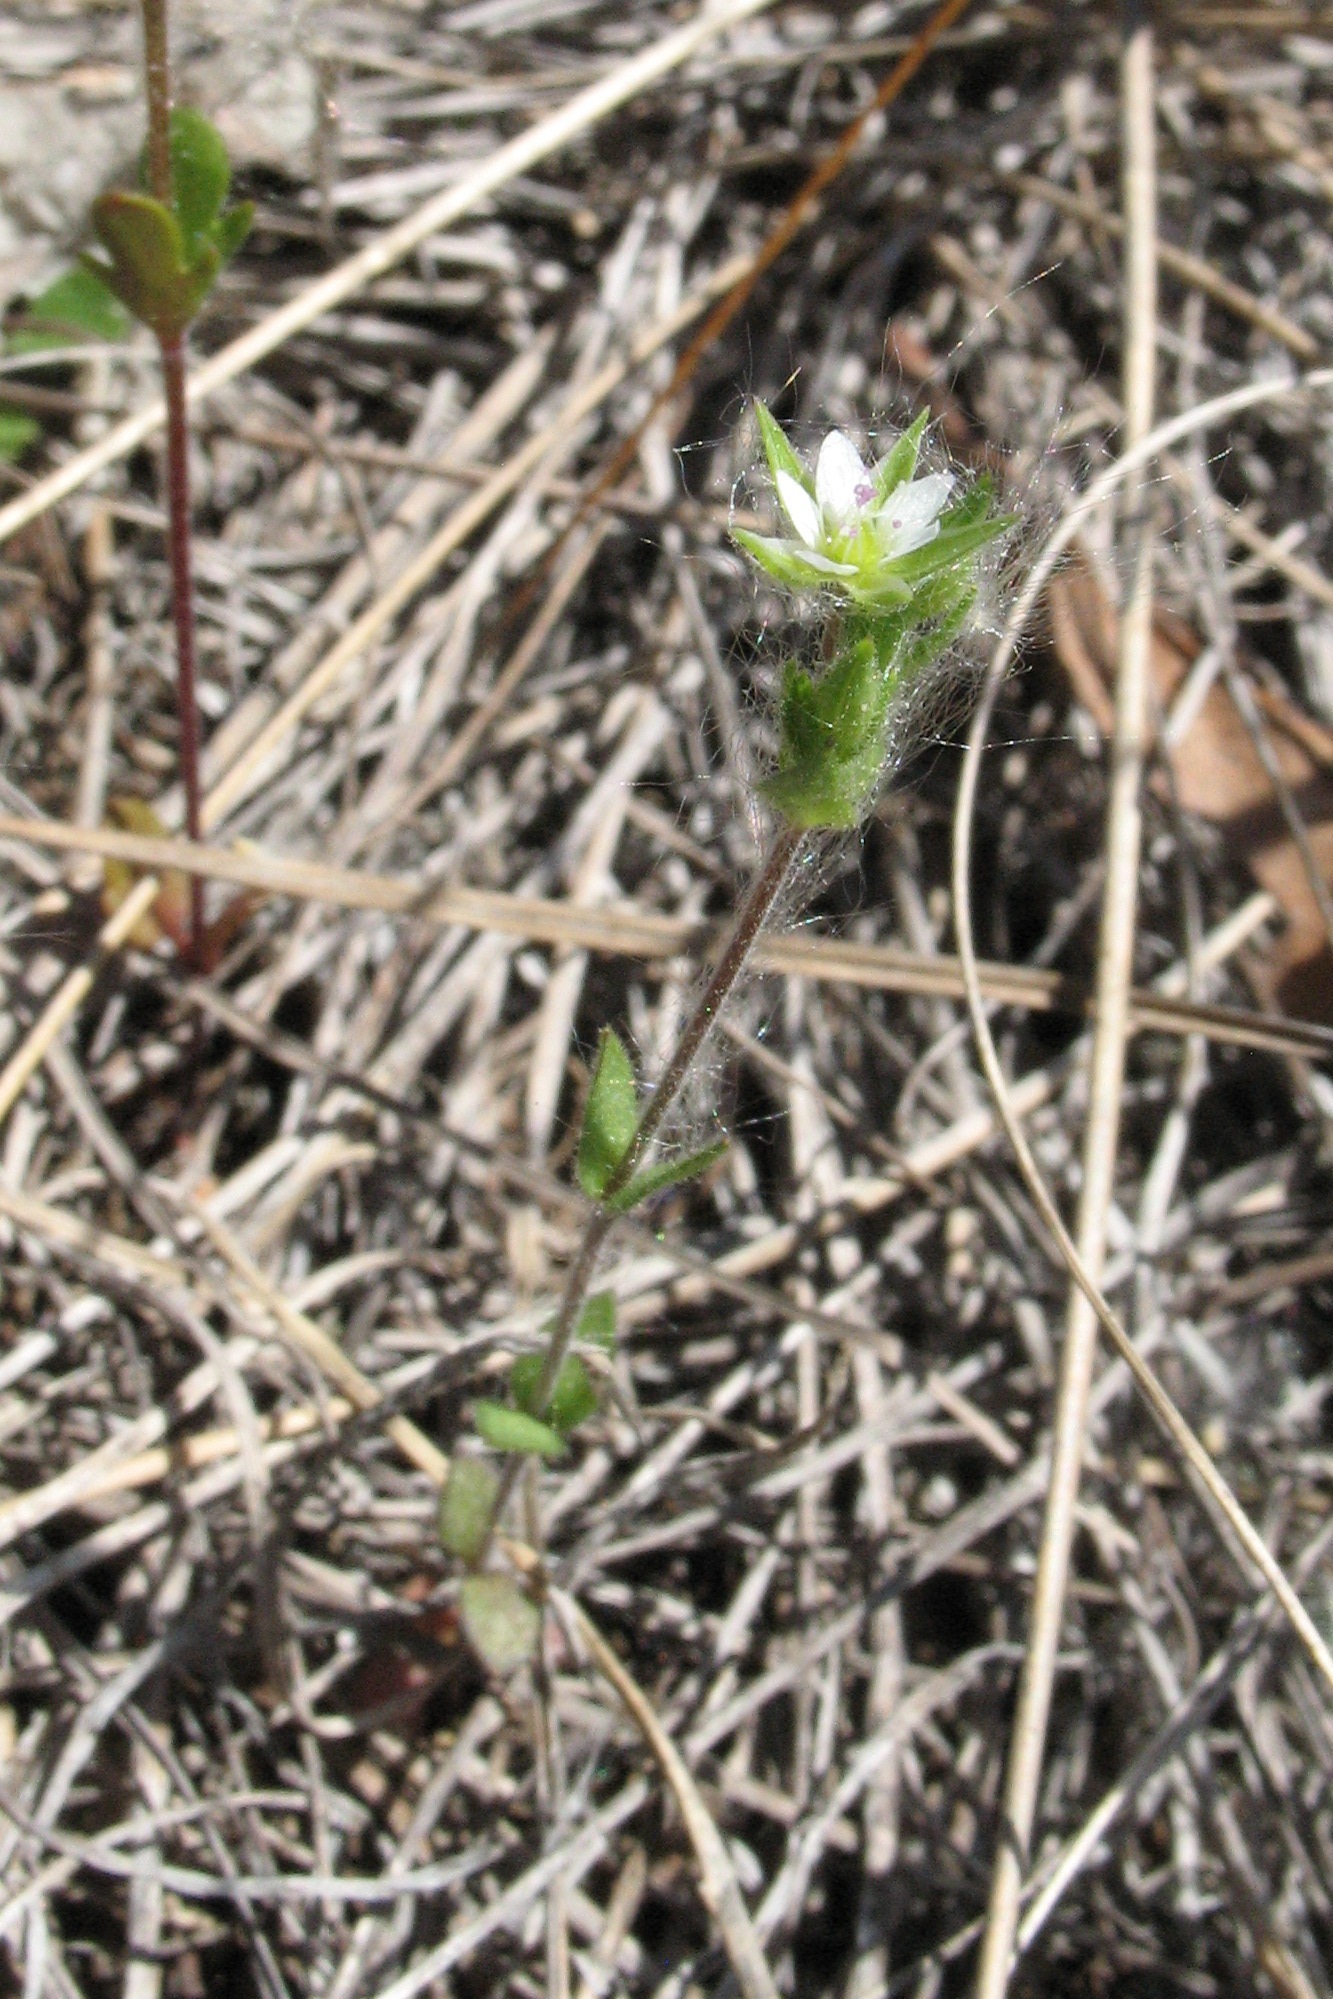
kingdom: Plantae
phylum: Tracheophyta
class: Magnoliopsida
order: Caryophyllales
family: Caryophyllaceae
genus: Arenaria
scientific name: Arenaria serpyllifolia
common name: Thyme-leaved sandwort
